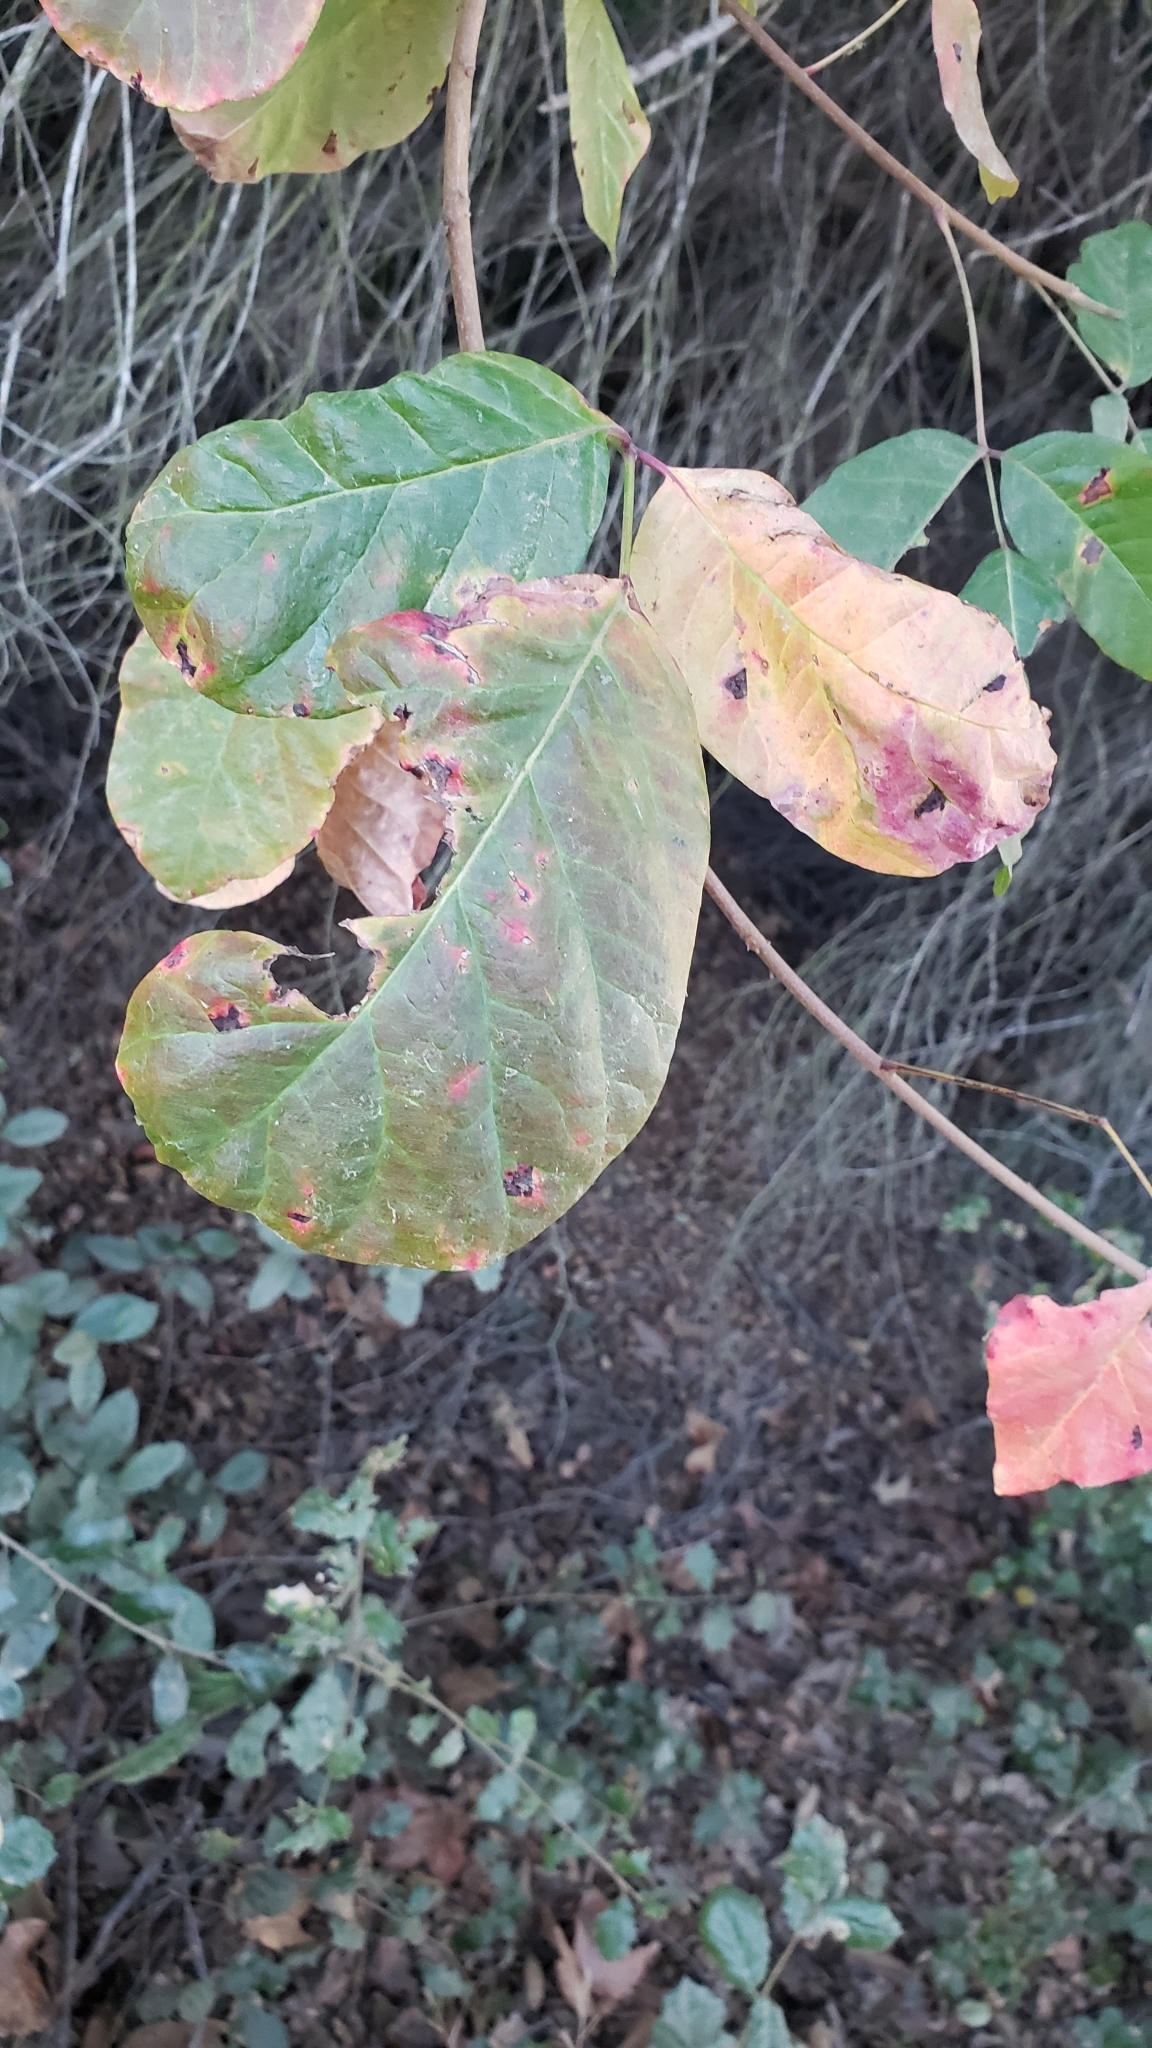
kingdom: Plantae
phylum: Tracheophyta
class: Magnoliopsida
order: Sapindales
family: Anacardiaceae
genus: Toxicodendron
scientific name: Toxicodendron diversilobum
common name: Pacific poison-oak
